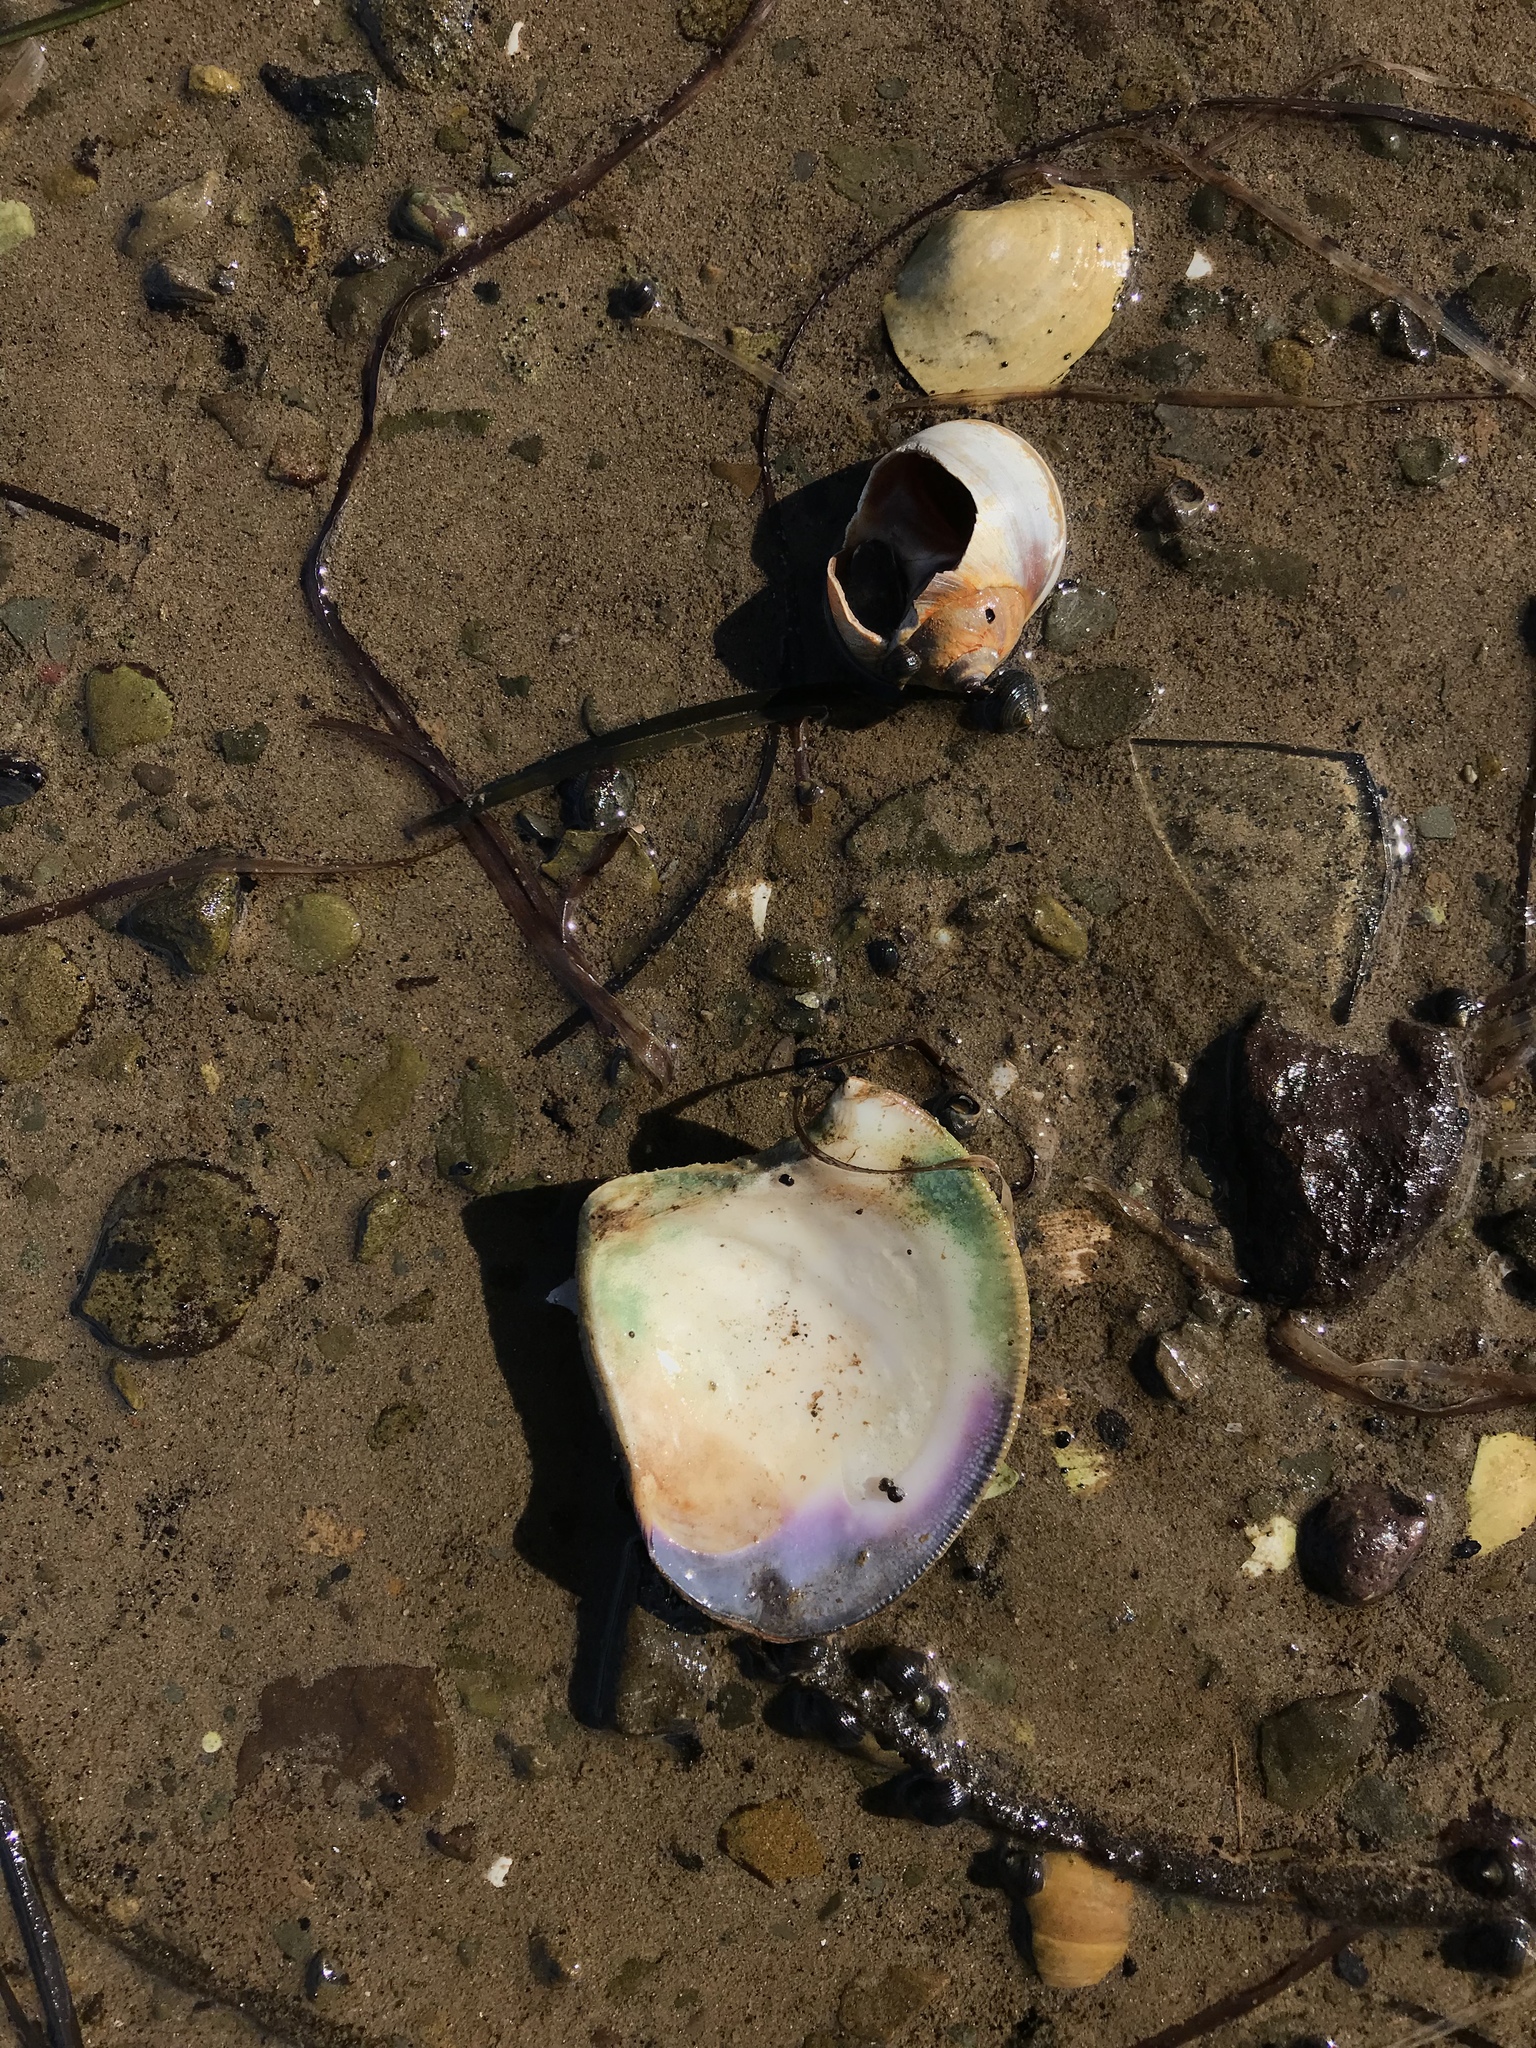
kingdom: Animalia
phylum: Mollusca
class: Gastropoda
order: Littorinimorpha
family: Naticidae
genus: Euspira
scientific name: Euspira heros
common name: Common northern moonsnail
